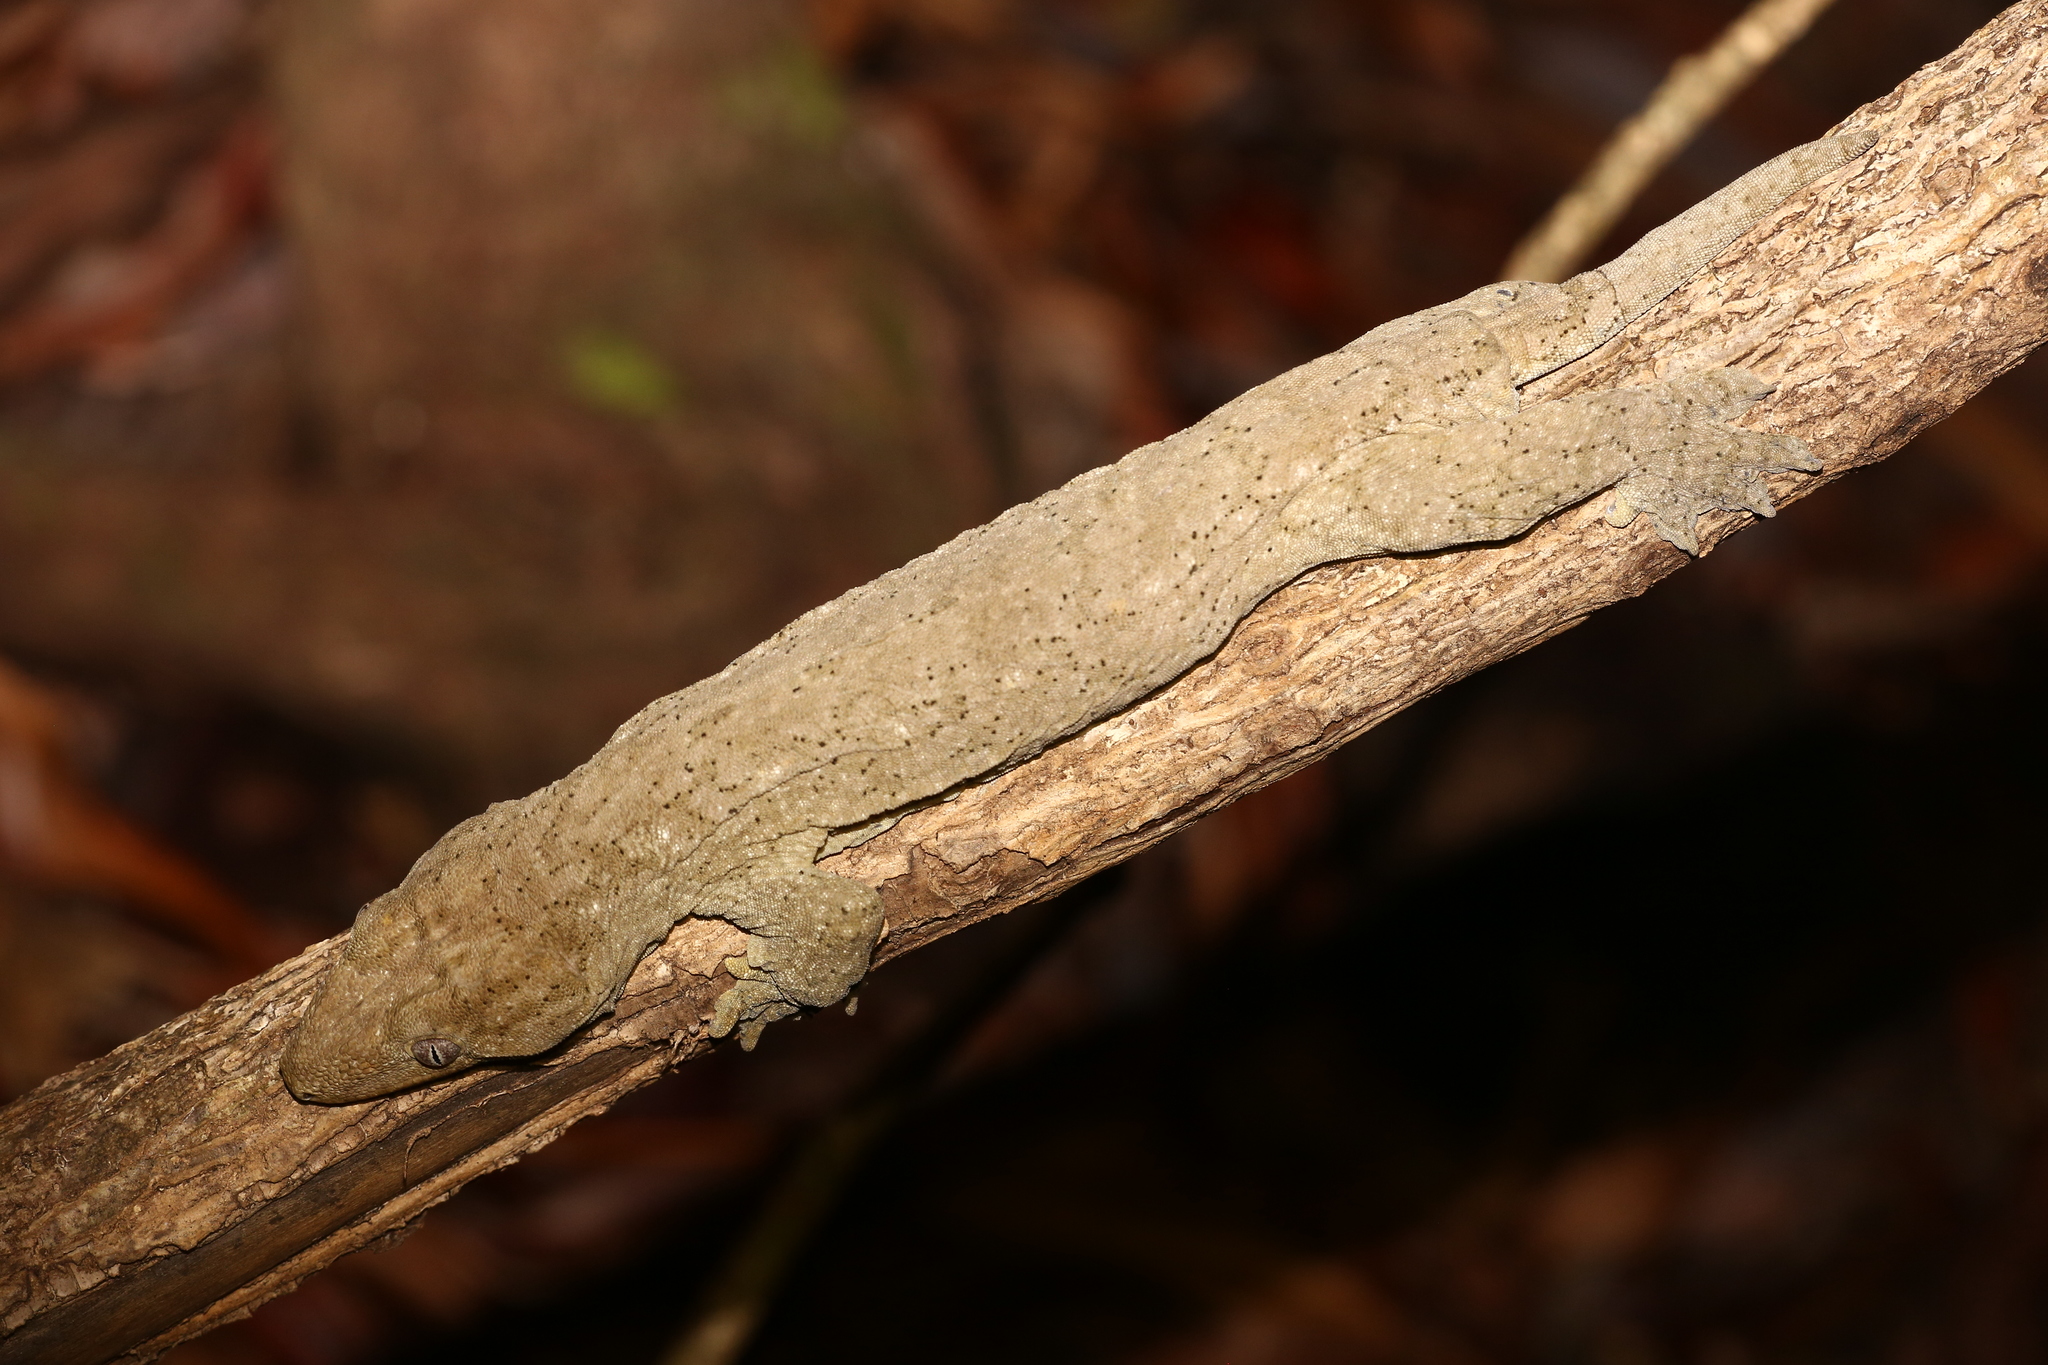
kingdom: Animalia
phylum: Chordata
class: Squamata
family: Diplodactylidae
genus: Rhacodactylus
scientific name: Rhacodactylus leachianus
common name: New caledonia giant gecko
